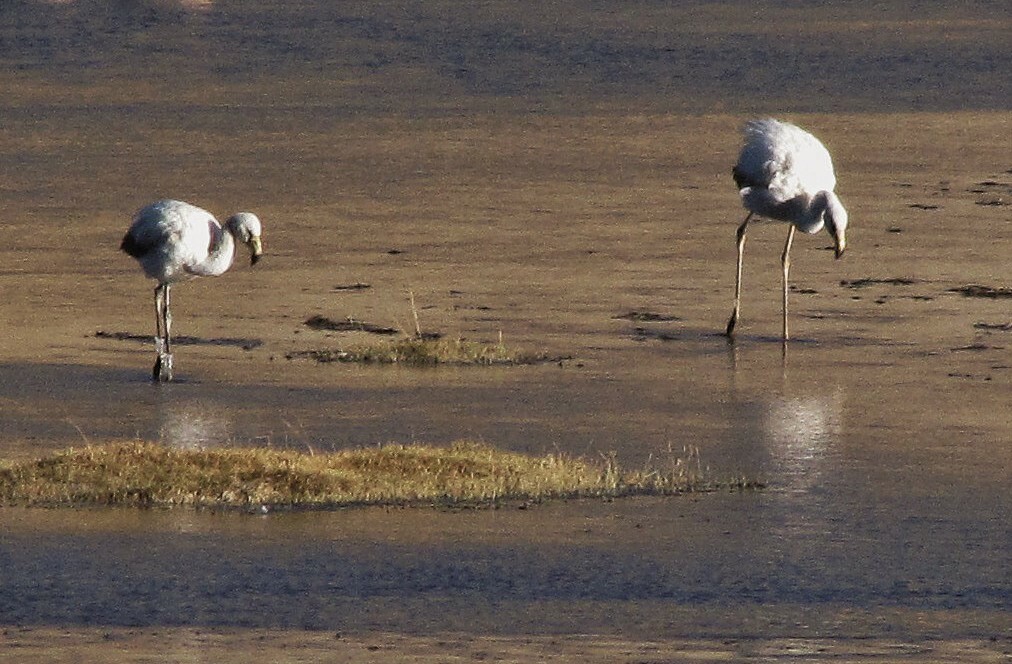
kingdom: Animalia
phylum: Chordata
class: Aves
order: Phoenicopteriformes
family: Phoenicopteridae
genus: Phoenicoparrus
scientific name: Phoenicoparrus jamesi
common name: James's flamingo
